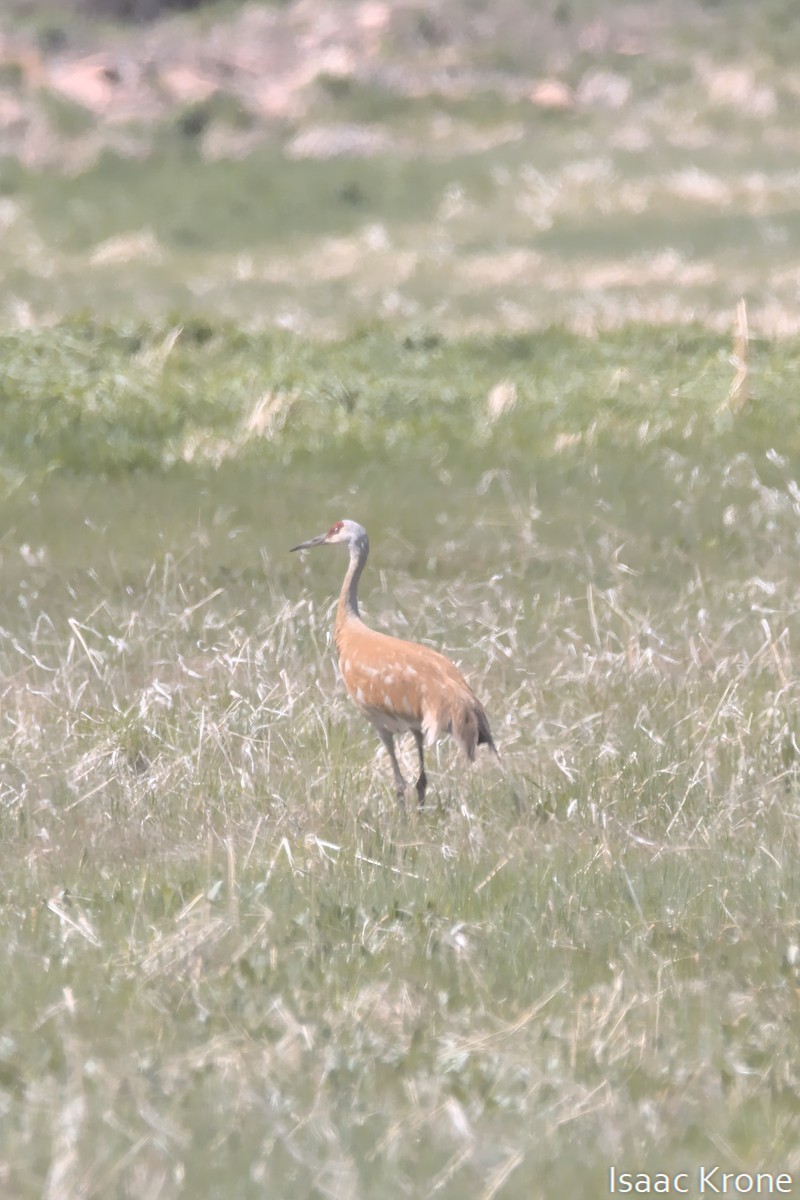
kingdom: Animalia
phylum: Chordata
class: Aves
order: Gruiformes
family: Gruidae
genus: Grus
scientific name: Grus canadensis
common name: Sandhill crane
